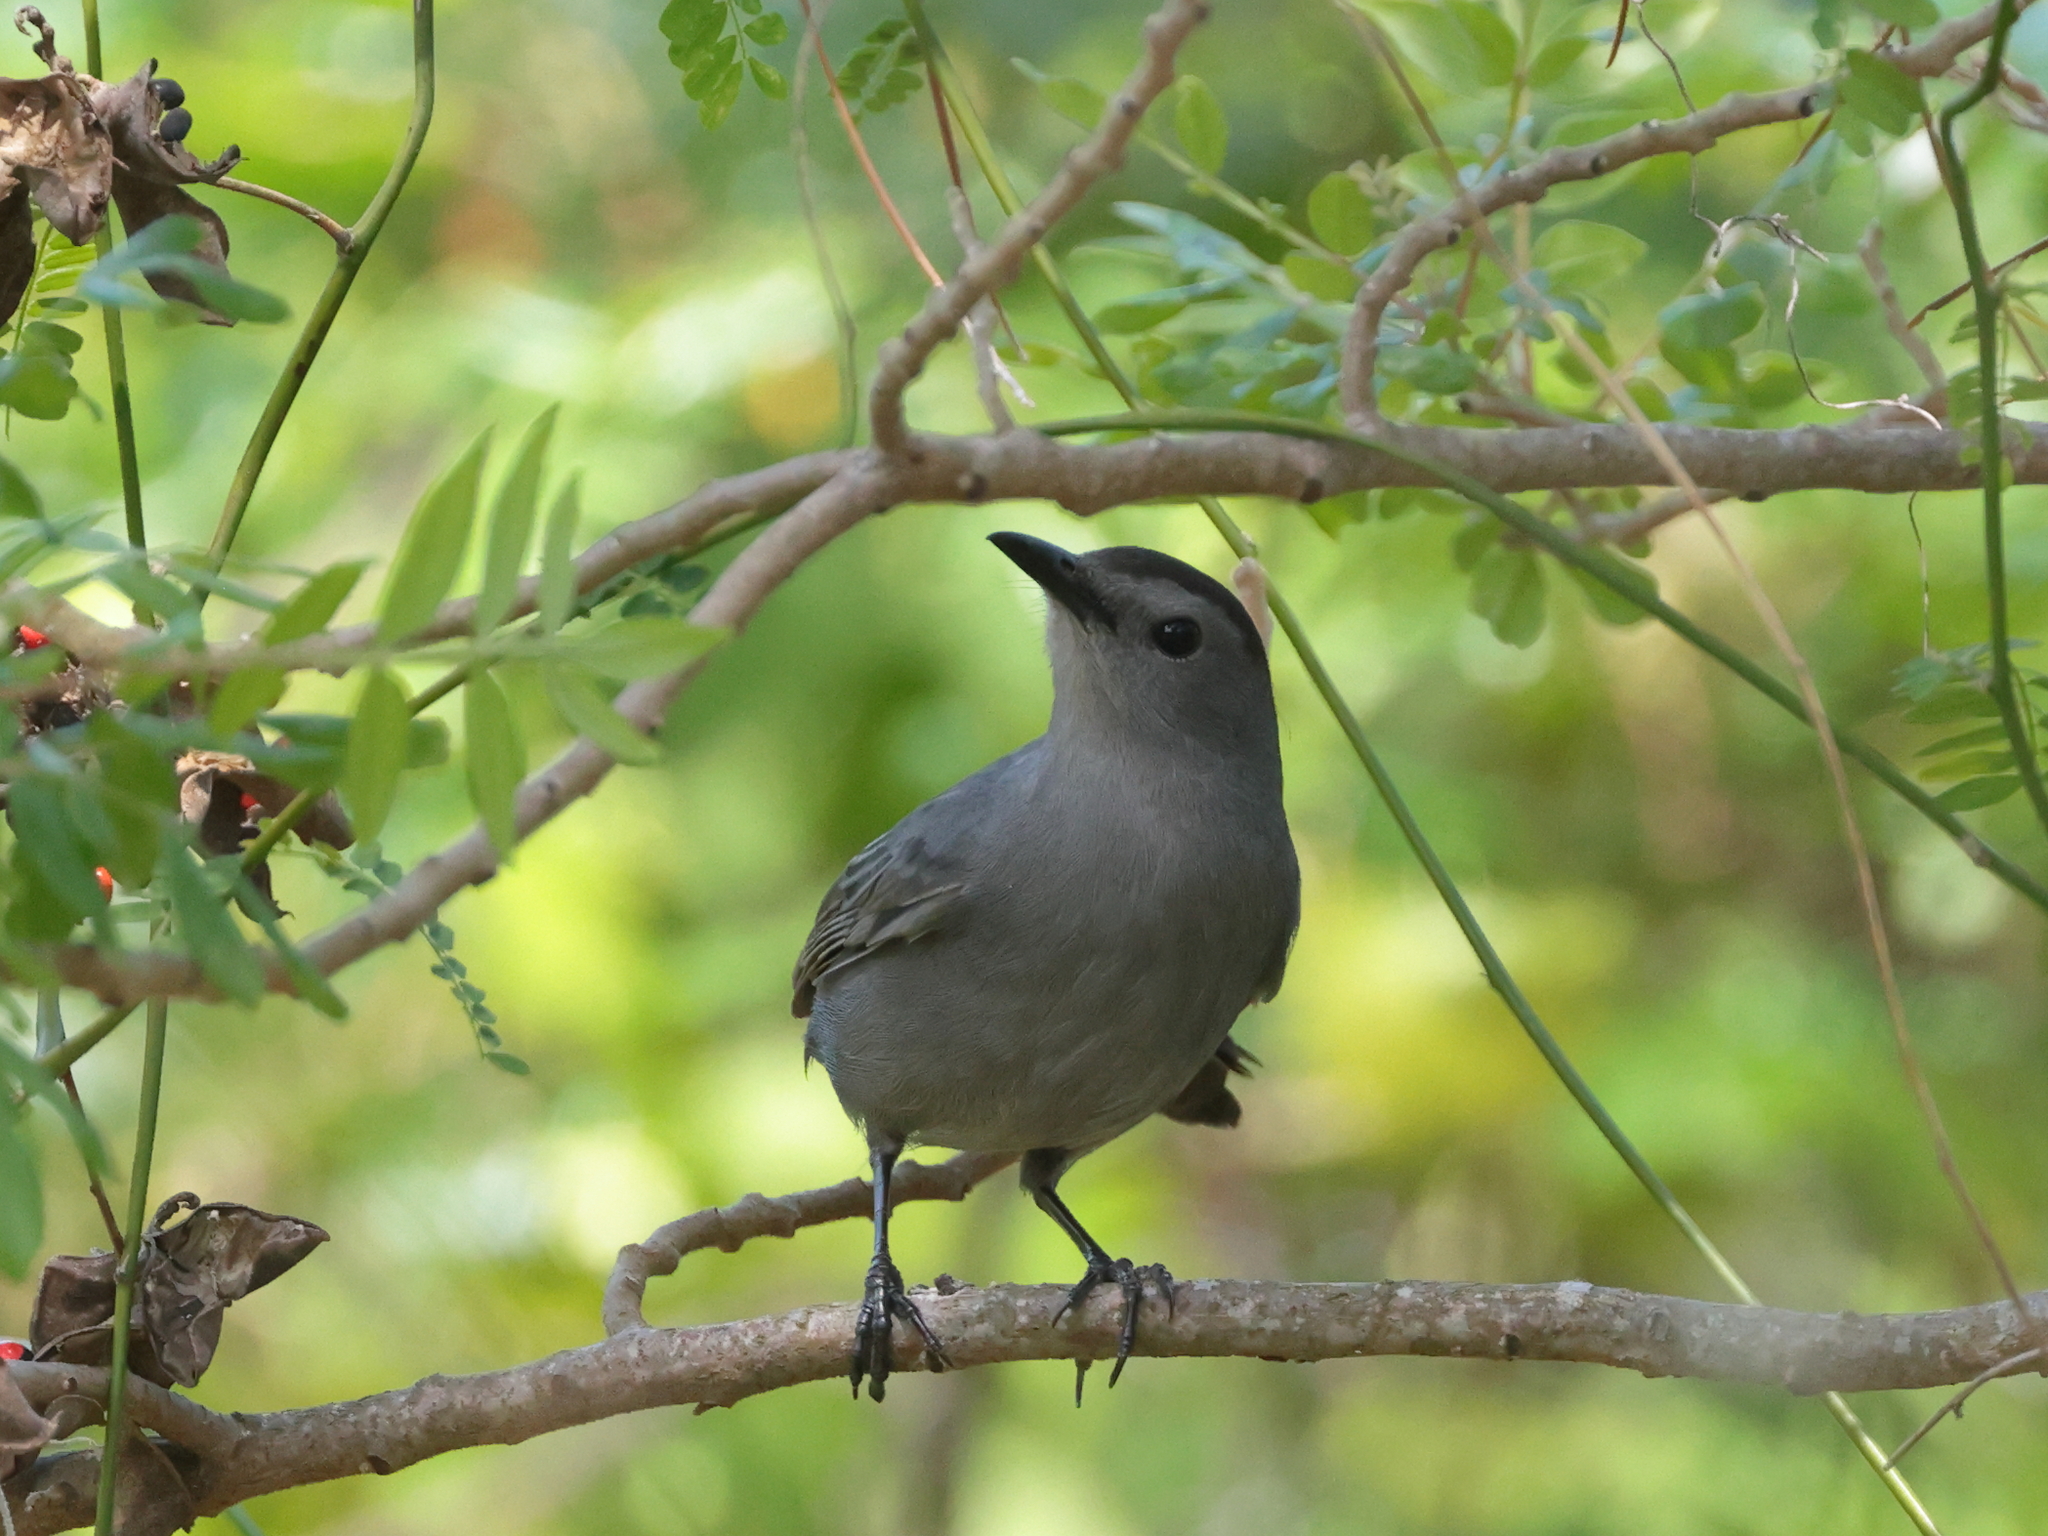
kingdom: Animalia
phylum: Chordata
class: Aves
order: Passeriformes
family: Mimidae
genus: Dumetella
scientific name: Dumetella carolinensis
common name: Gray catbird
